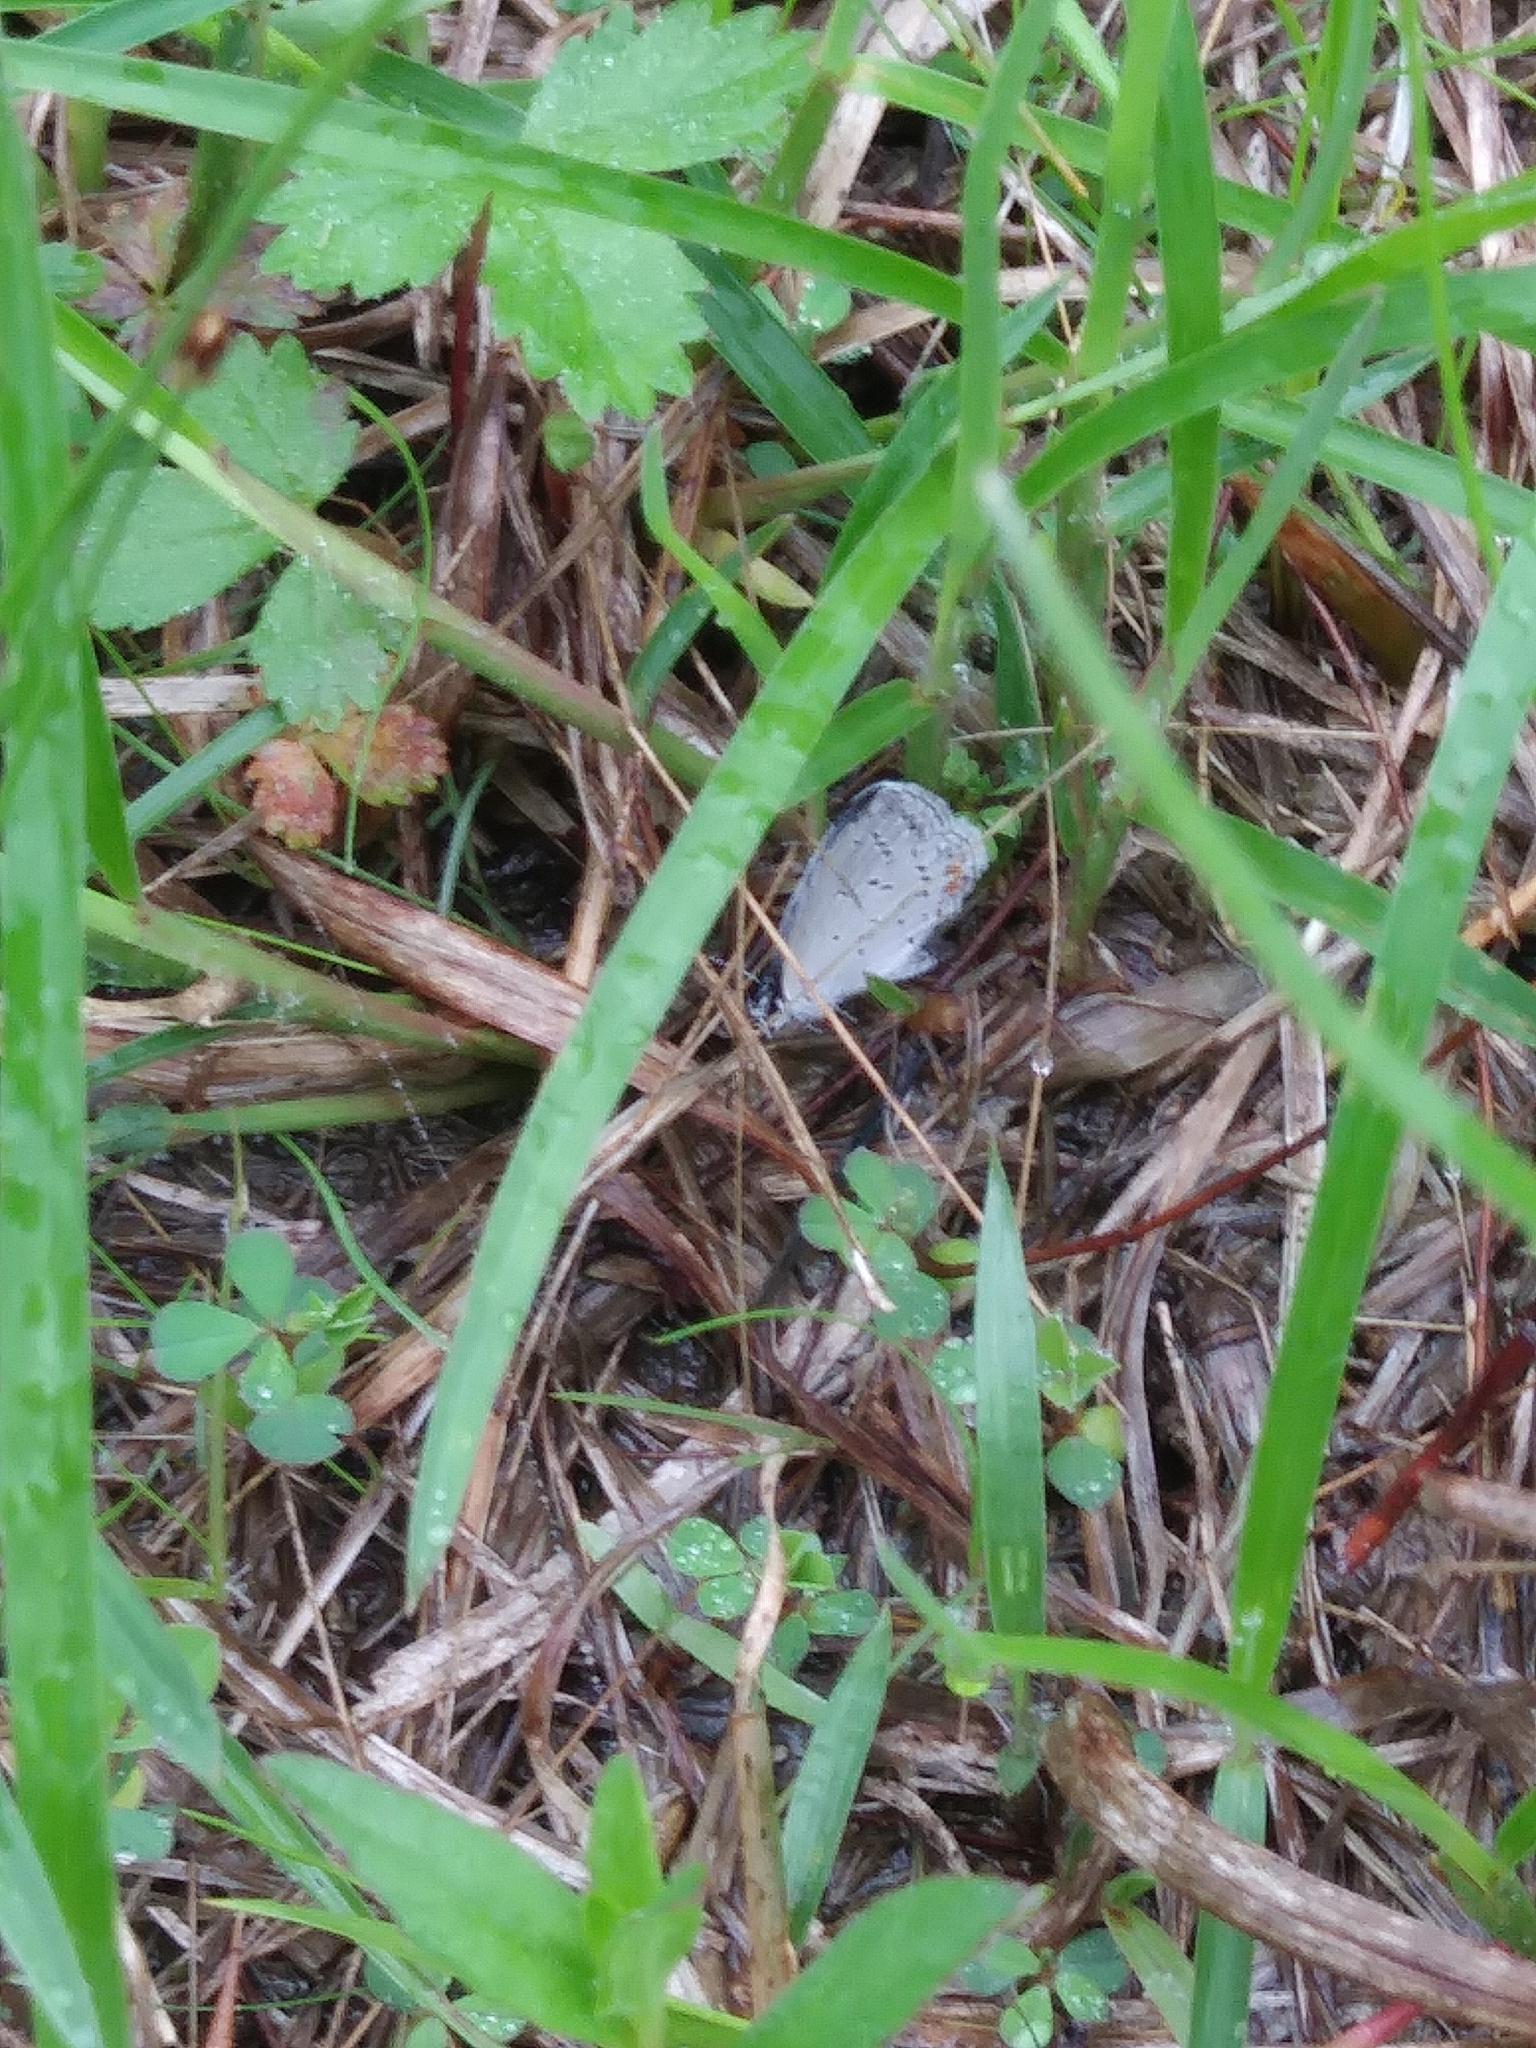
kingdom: Animalia
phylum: Arthropoda
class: Insecta
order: Lepidoptera
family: Lycaenidae
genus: Elkalyce
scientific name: Elkalyce comyntas
